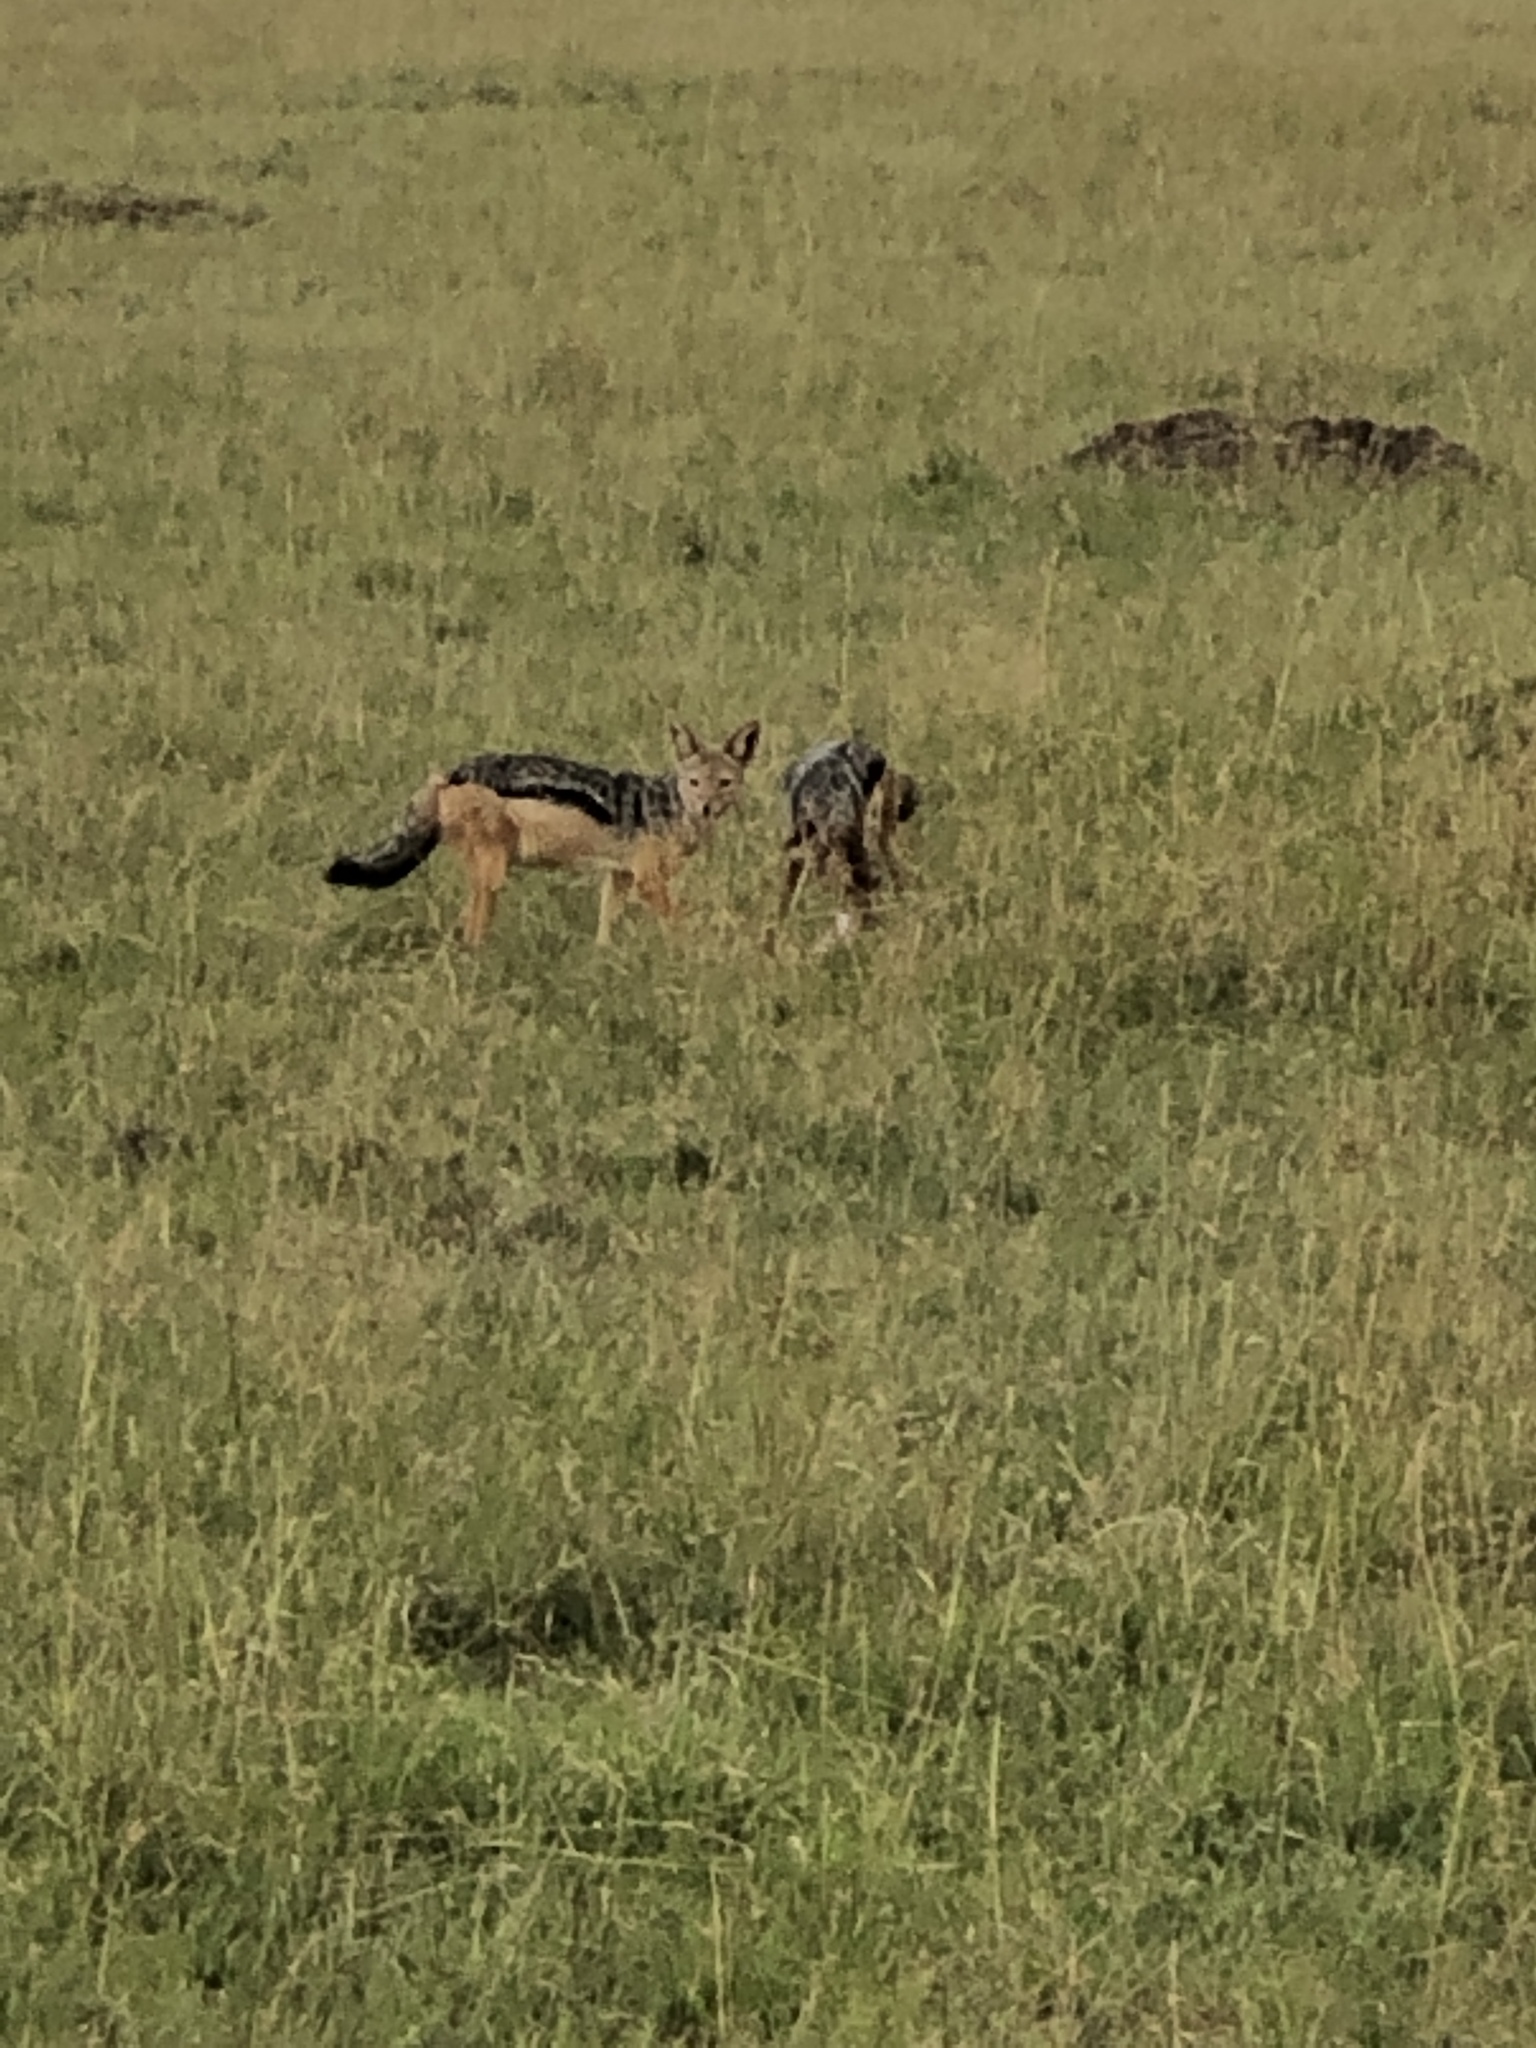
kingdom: Animalia
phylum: Chordata
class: Mammalia
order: Carnivora
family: Canidae
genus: Lupulella
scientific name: Lupulella
